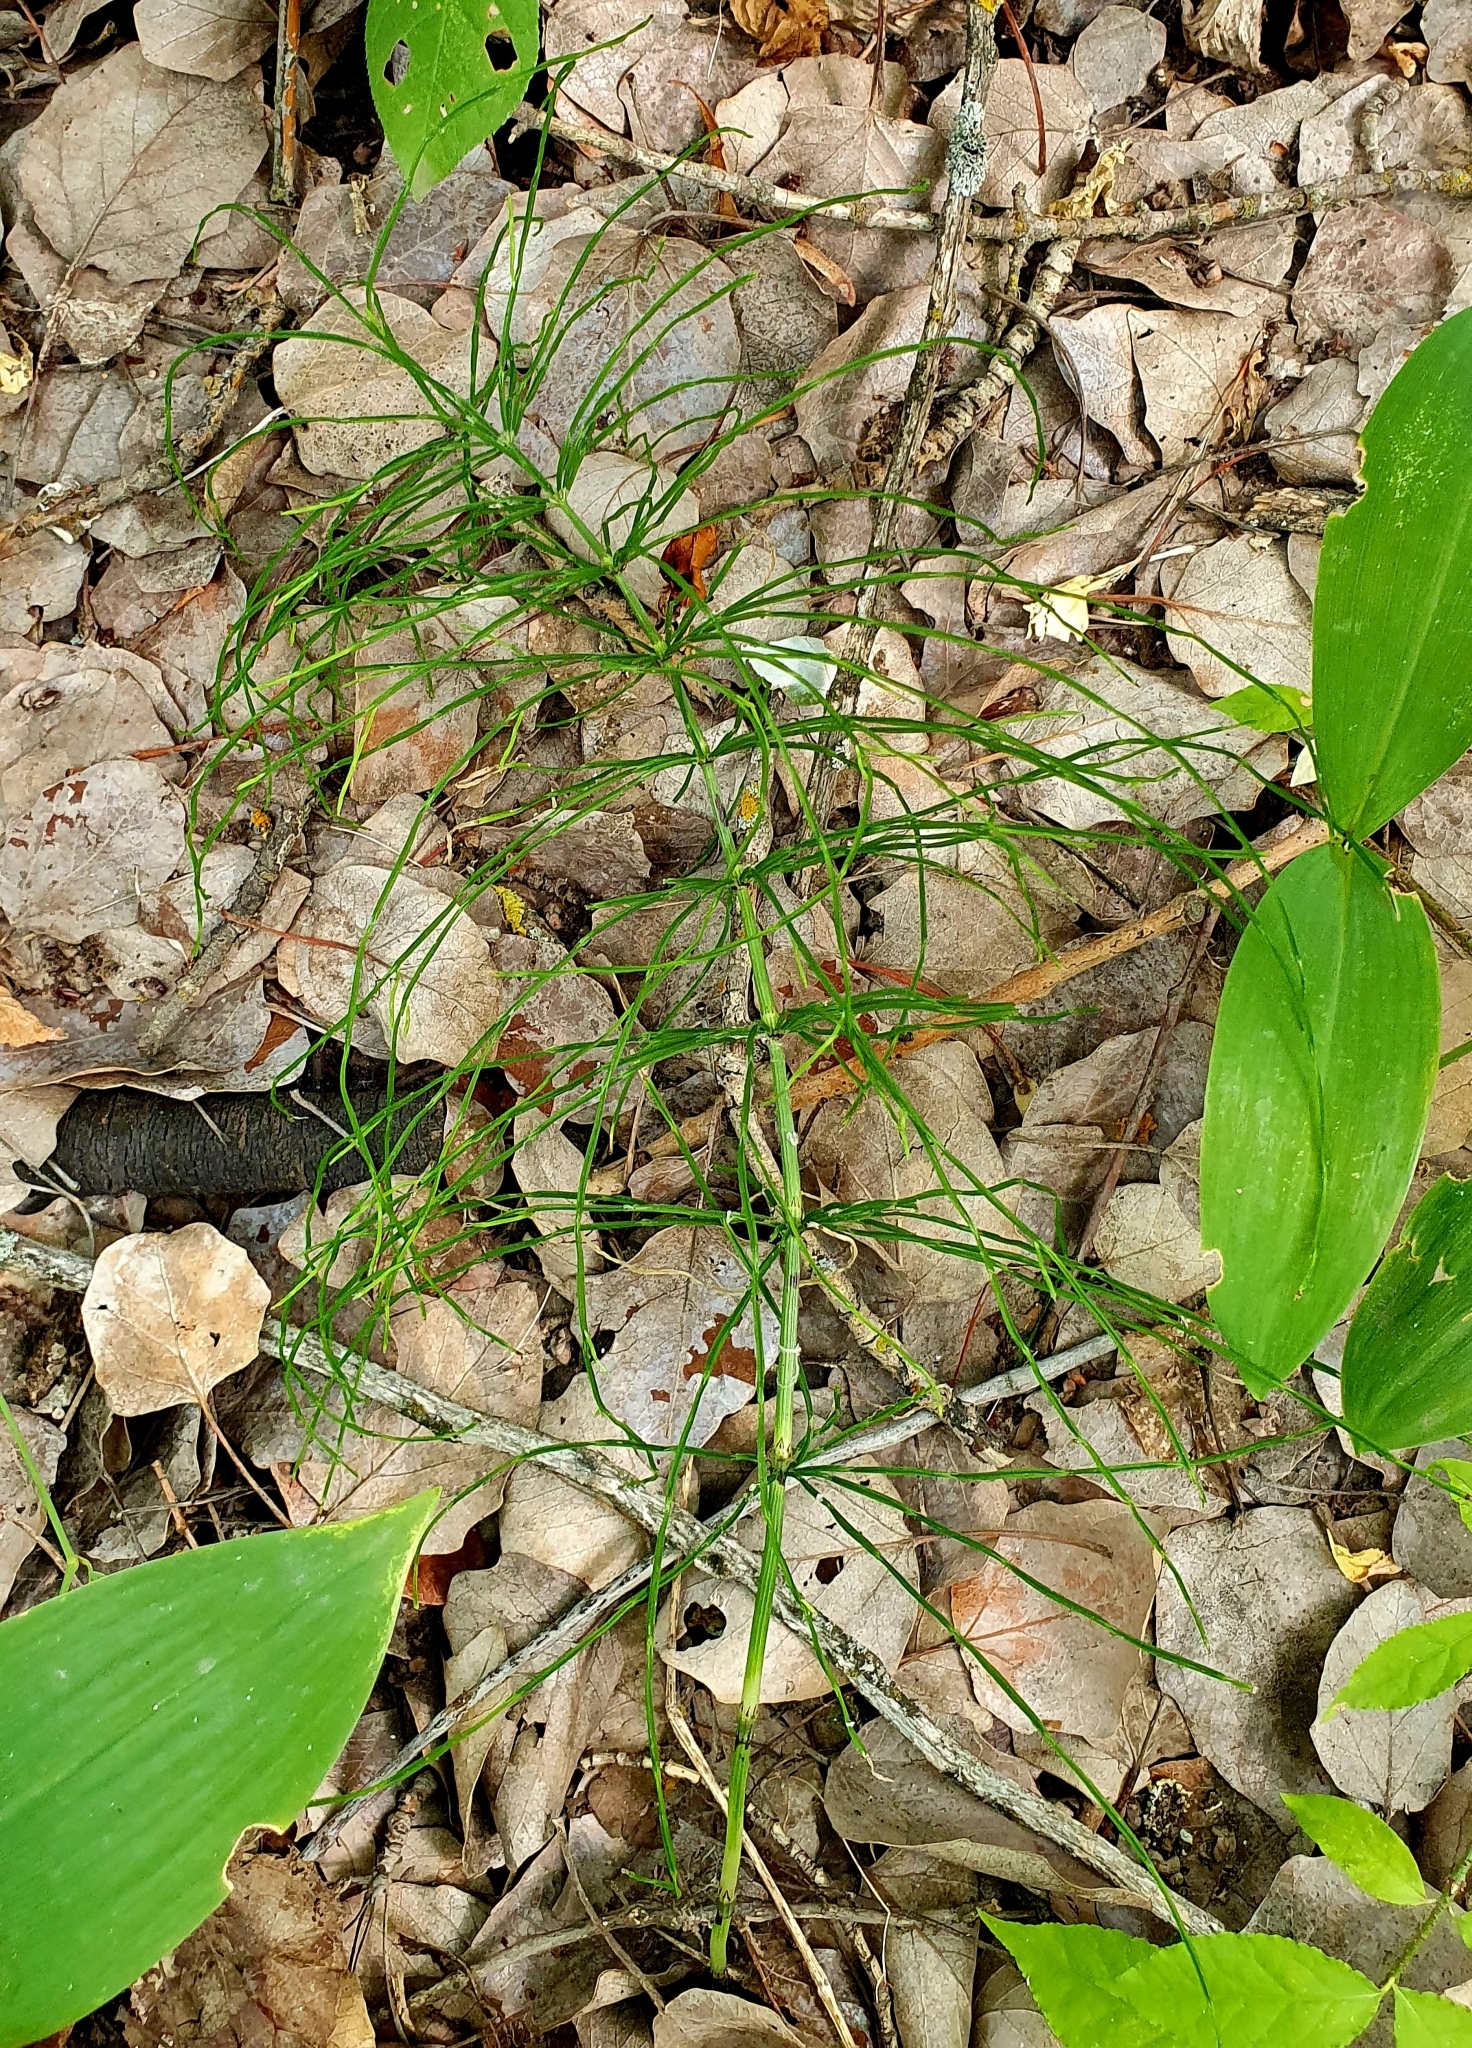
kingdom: Plantae
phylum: Tracheophyta
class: Polypodiopsida
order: Equisetales
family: Equisetaceae
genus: Equisetum
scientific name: Equisetum arvense
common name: Field horsetail
